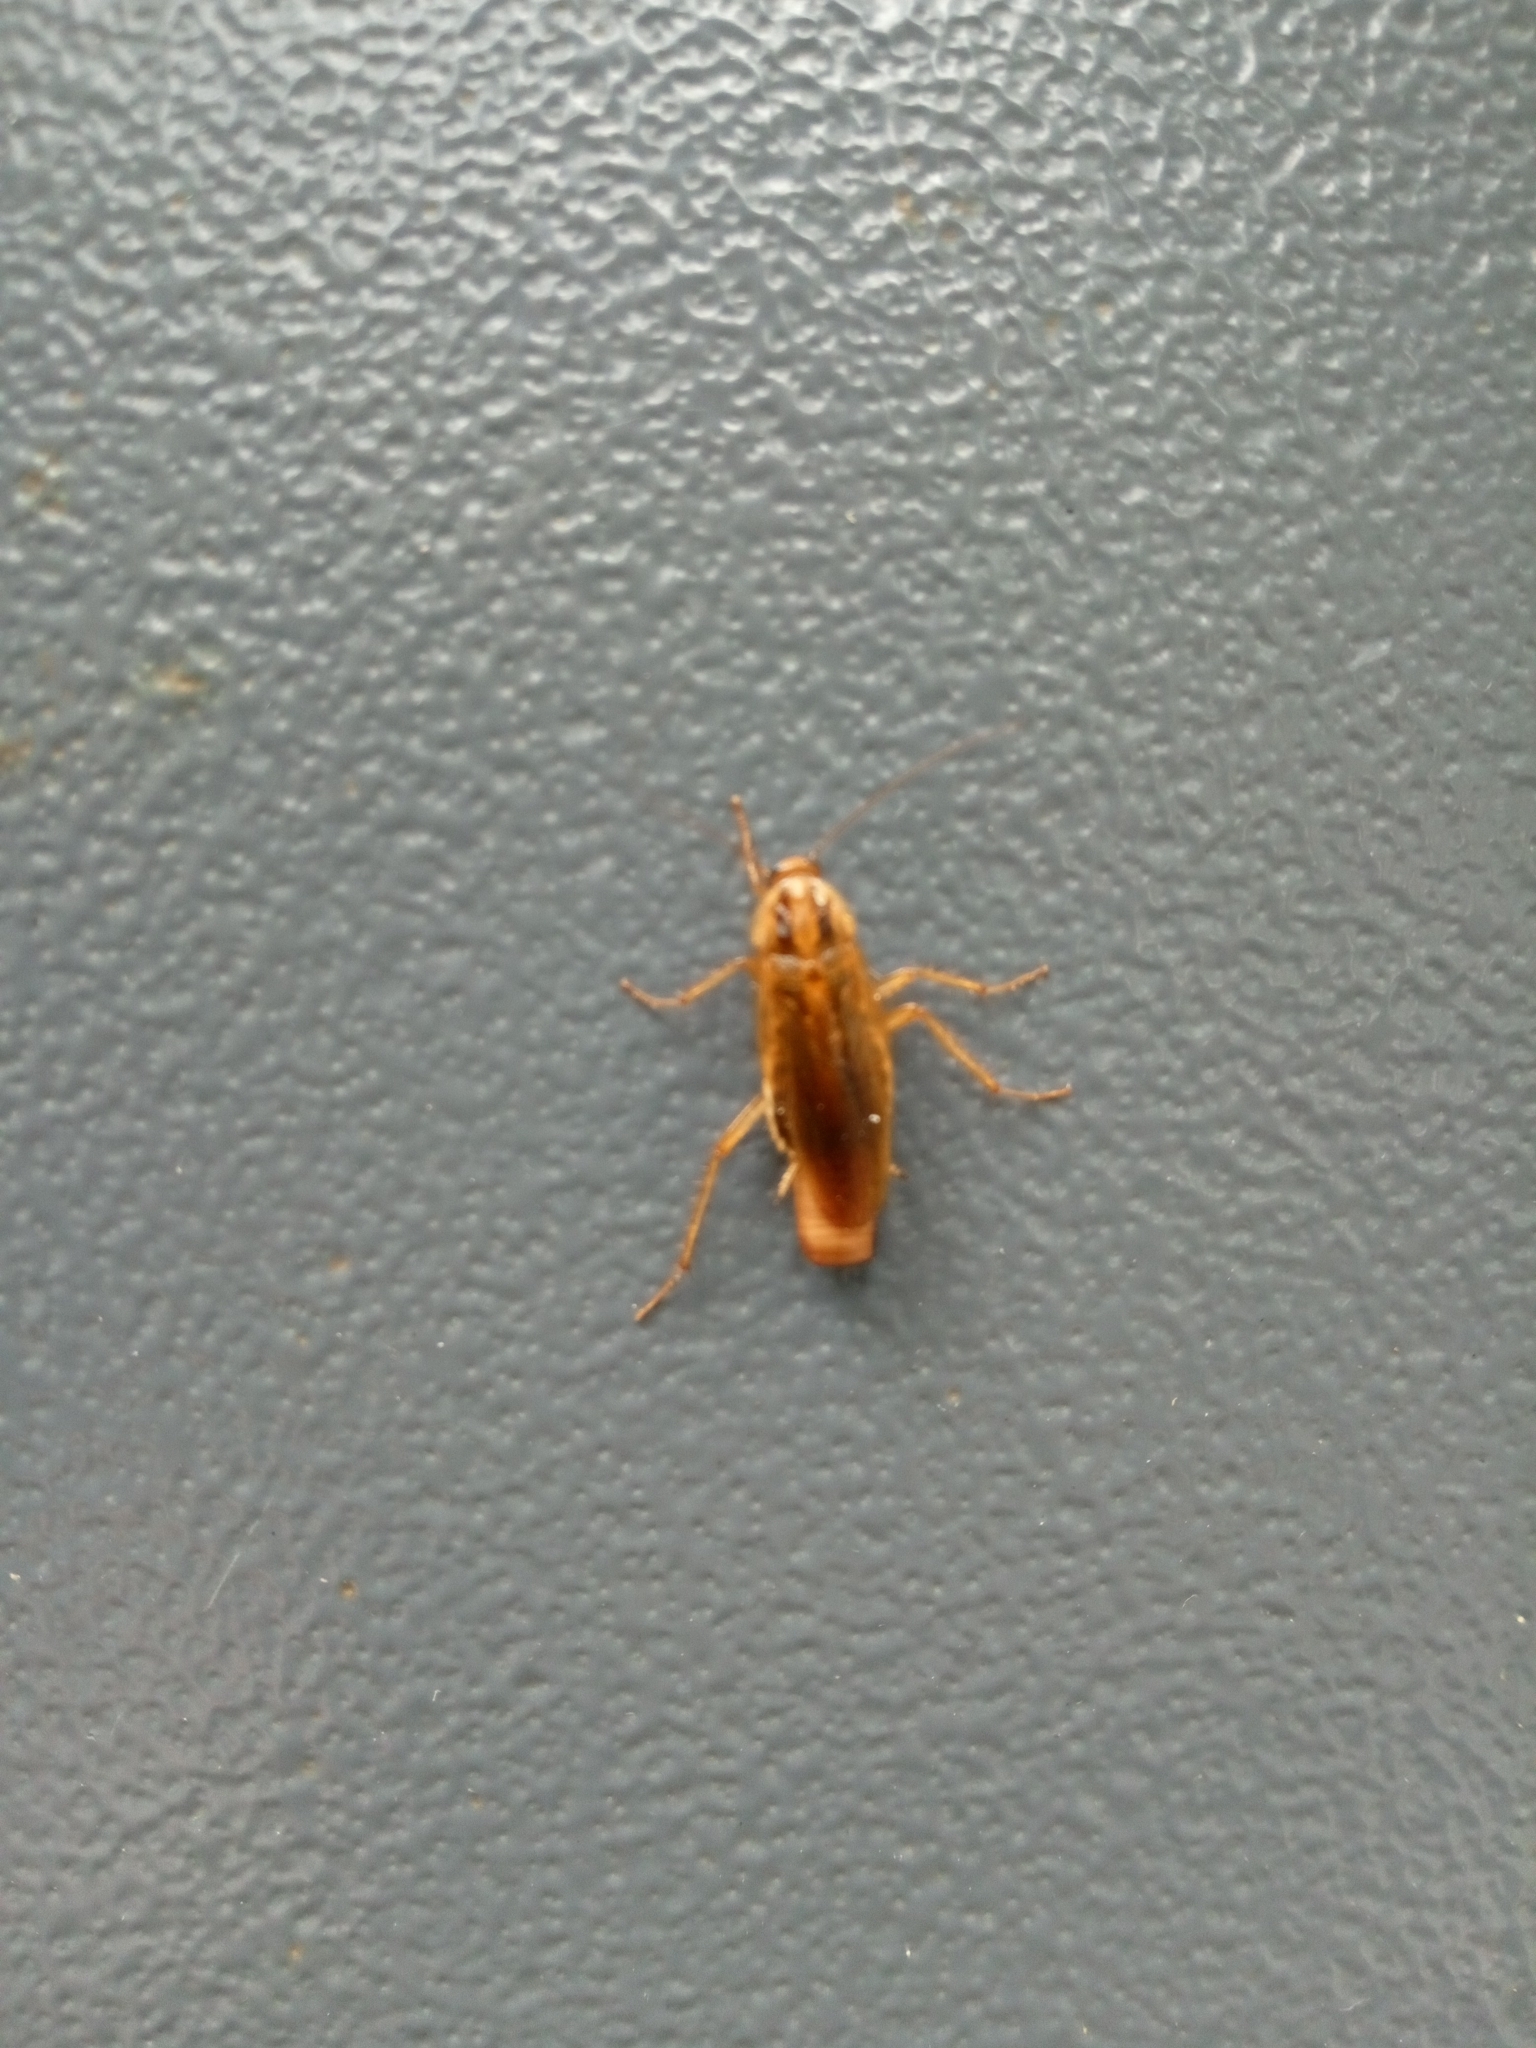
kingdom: Animalia
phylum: Arthropoda
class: Insecta
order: Blattodea
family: Ectobiidae
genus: Blattella
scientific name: Blattella germanica
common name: German cockroach
